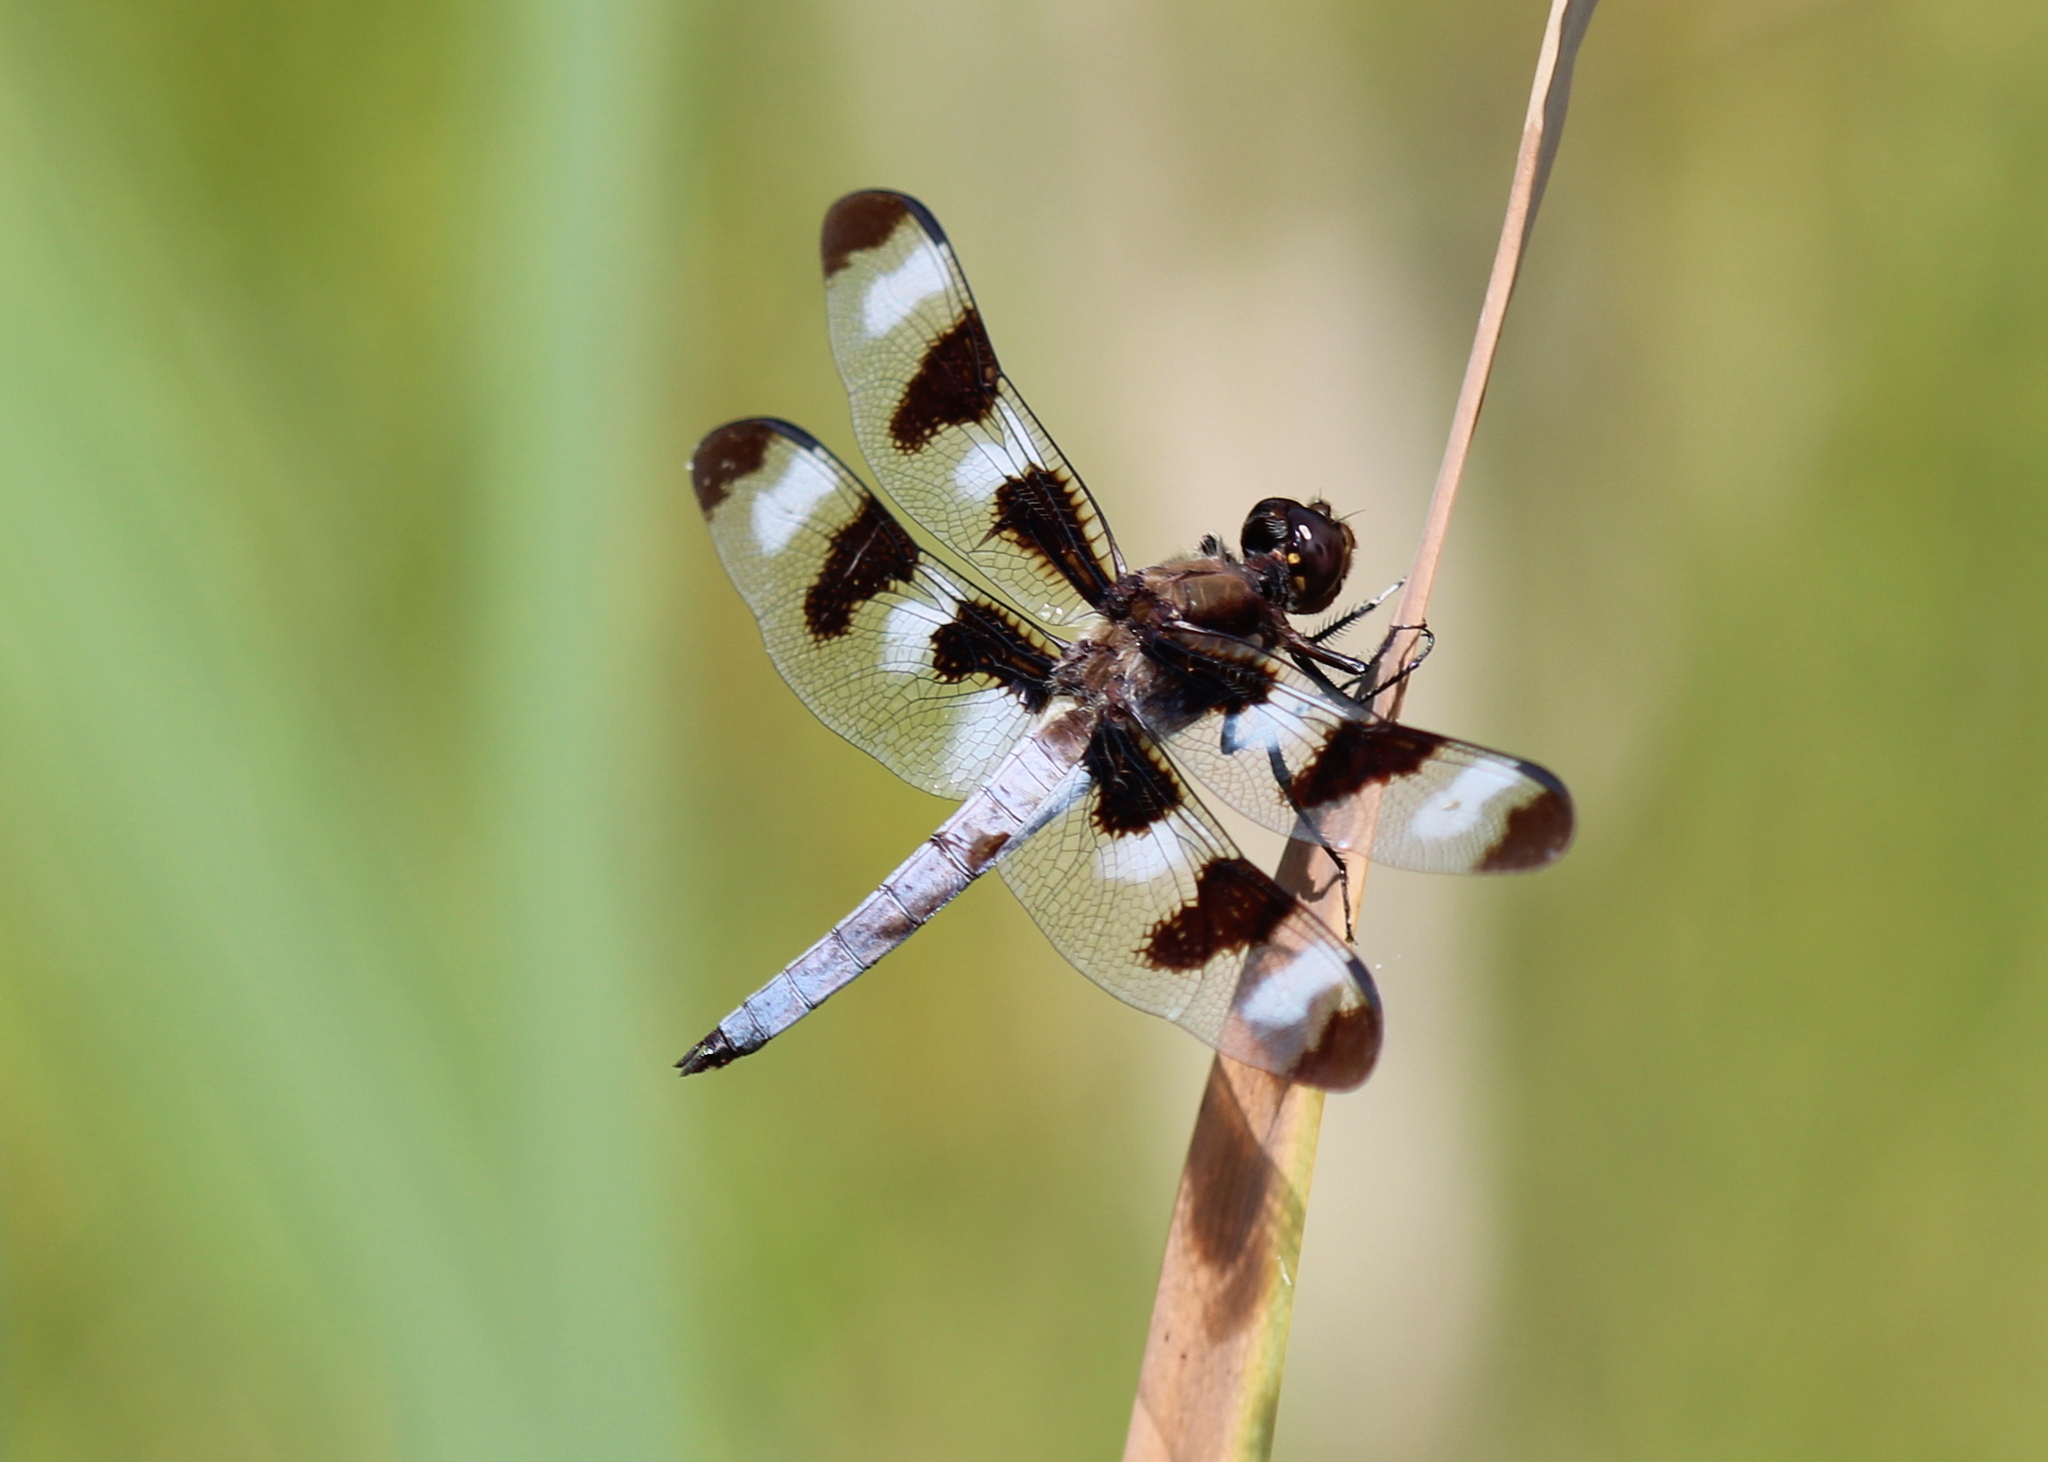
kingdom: Animalia
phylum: Arthropoda
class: Insecta
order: Odonata
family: Libellulidae
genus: Libellula
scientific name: Libellula pulchella
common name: Twelve-spotted skimmer
